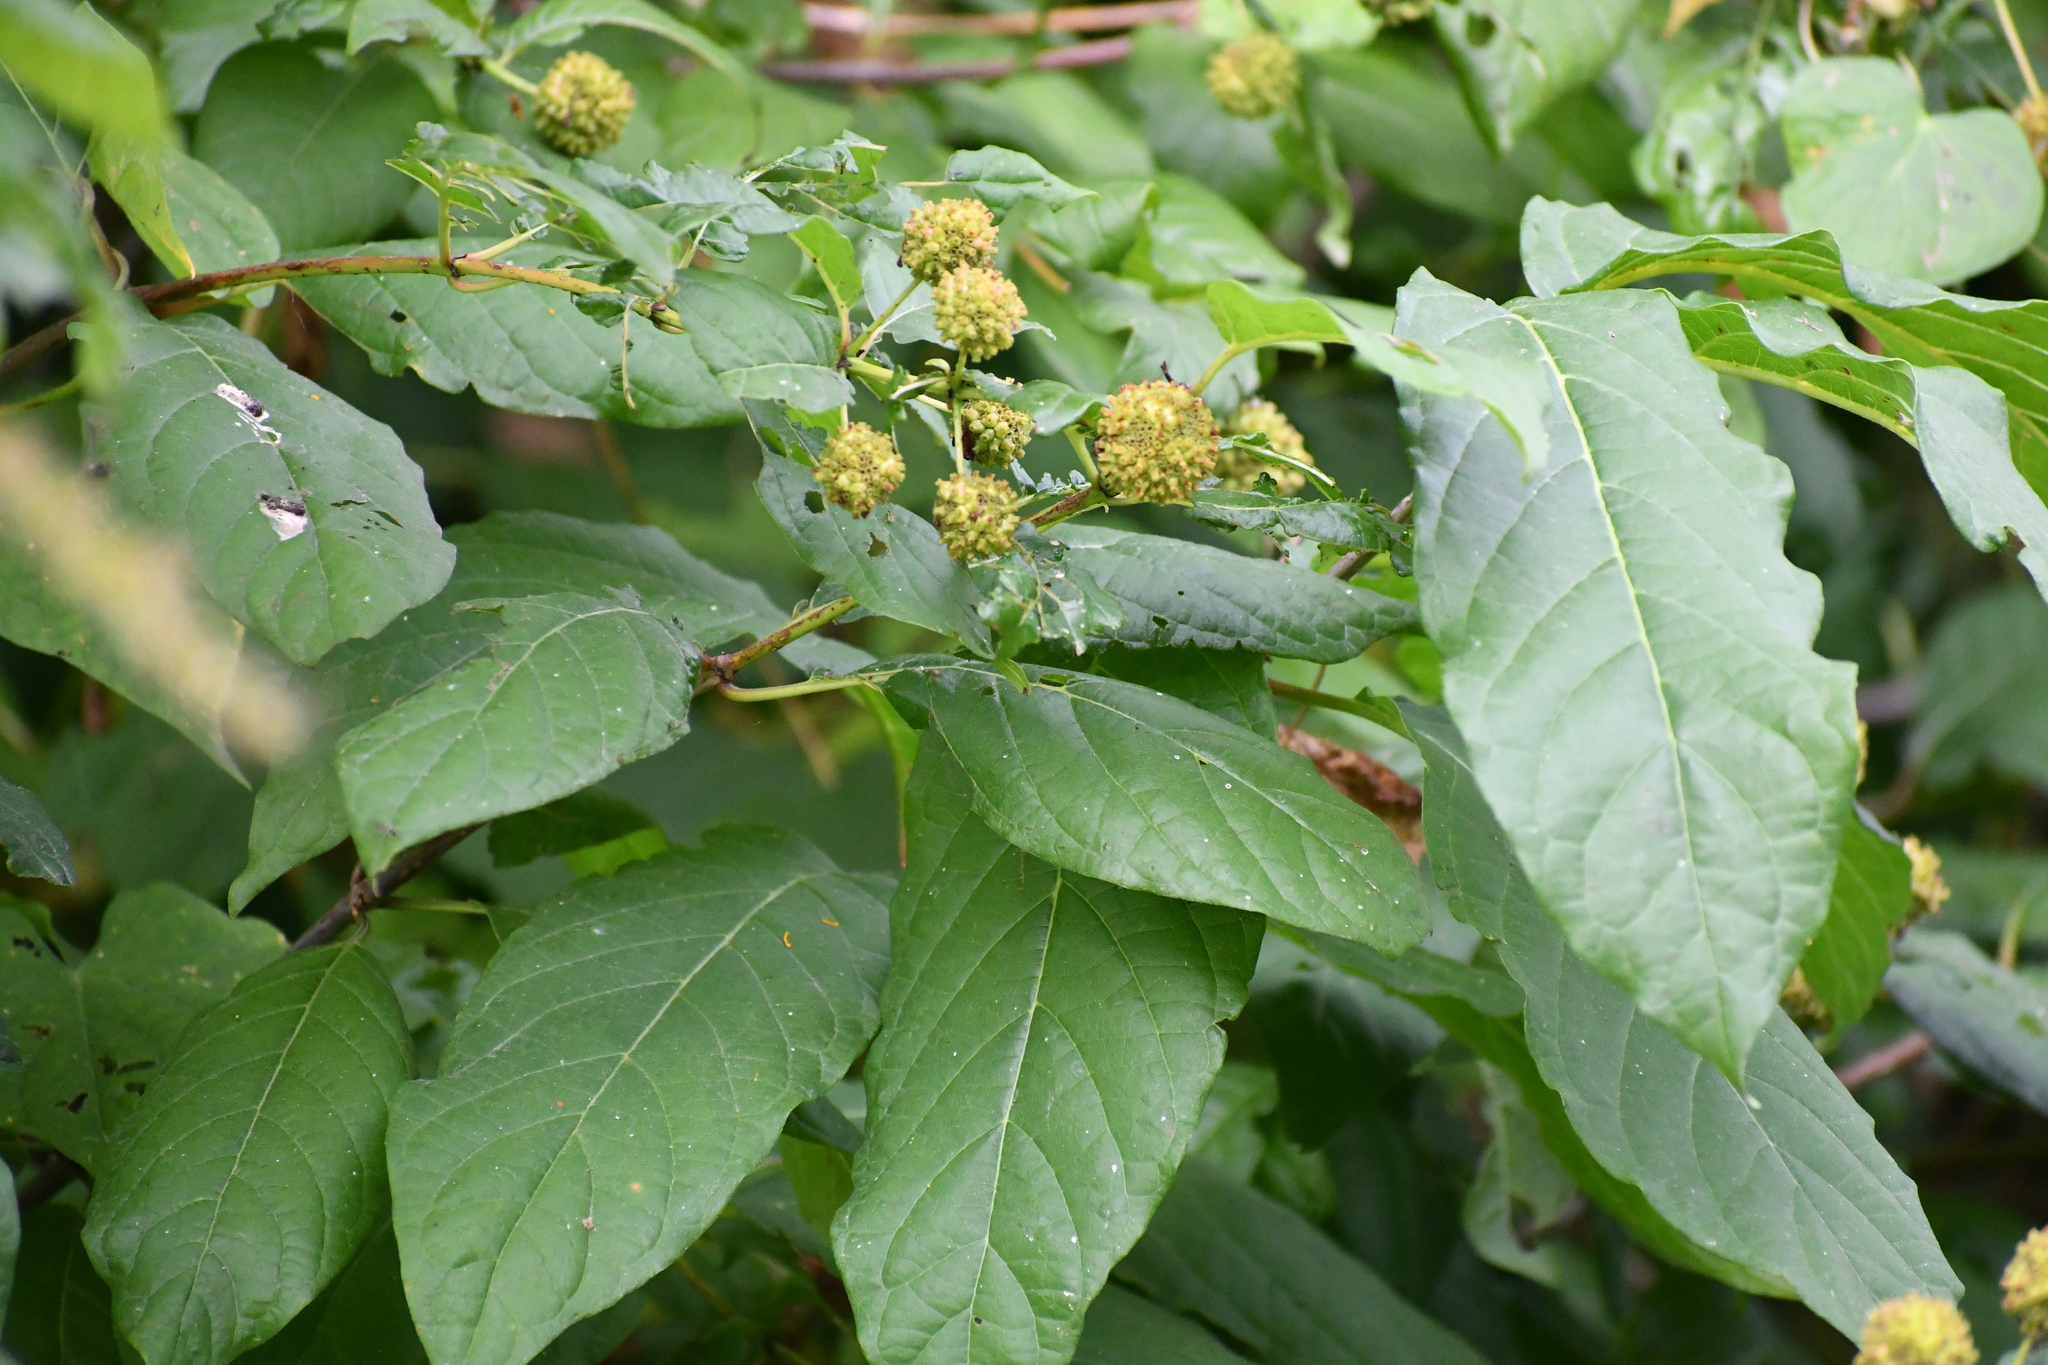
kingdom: Plantae
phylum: Tracheophyta
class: Magnoliopsida
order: Gentianales
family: Rubiaceae
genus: Cephalanthus
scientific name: Cephalanthus occidentalis
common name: Button-willow
